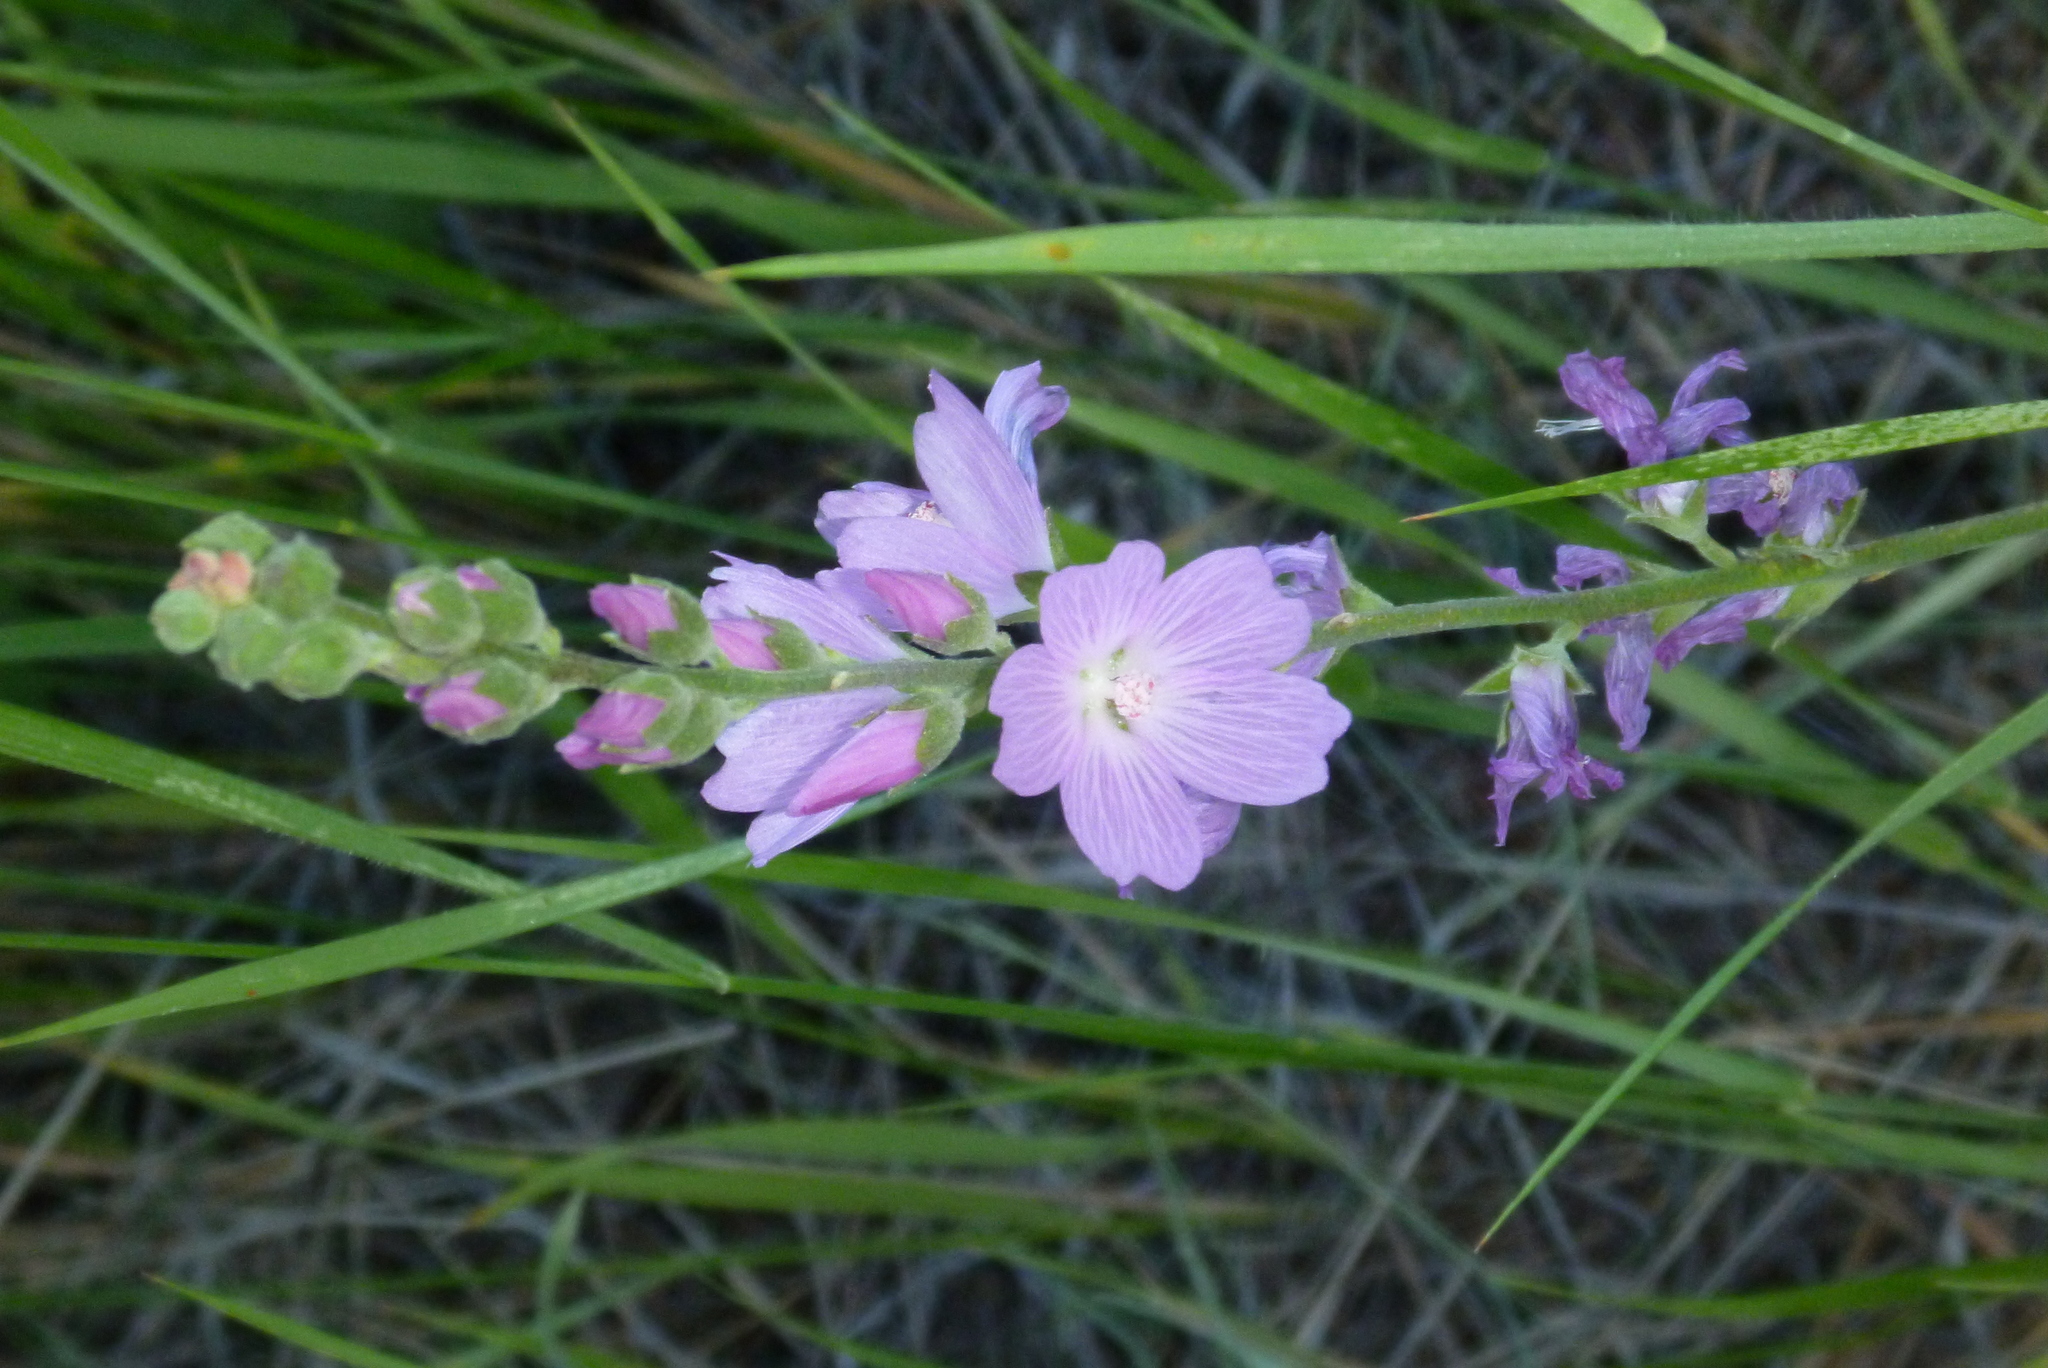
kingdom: Plantae
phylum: Tracheophyta
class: Magnoliopsida
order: Malvales
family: Malvaceae
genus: Sidalcea
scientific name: Sidalcea oregana
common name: Oregon checker-mallow
